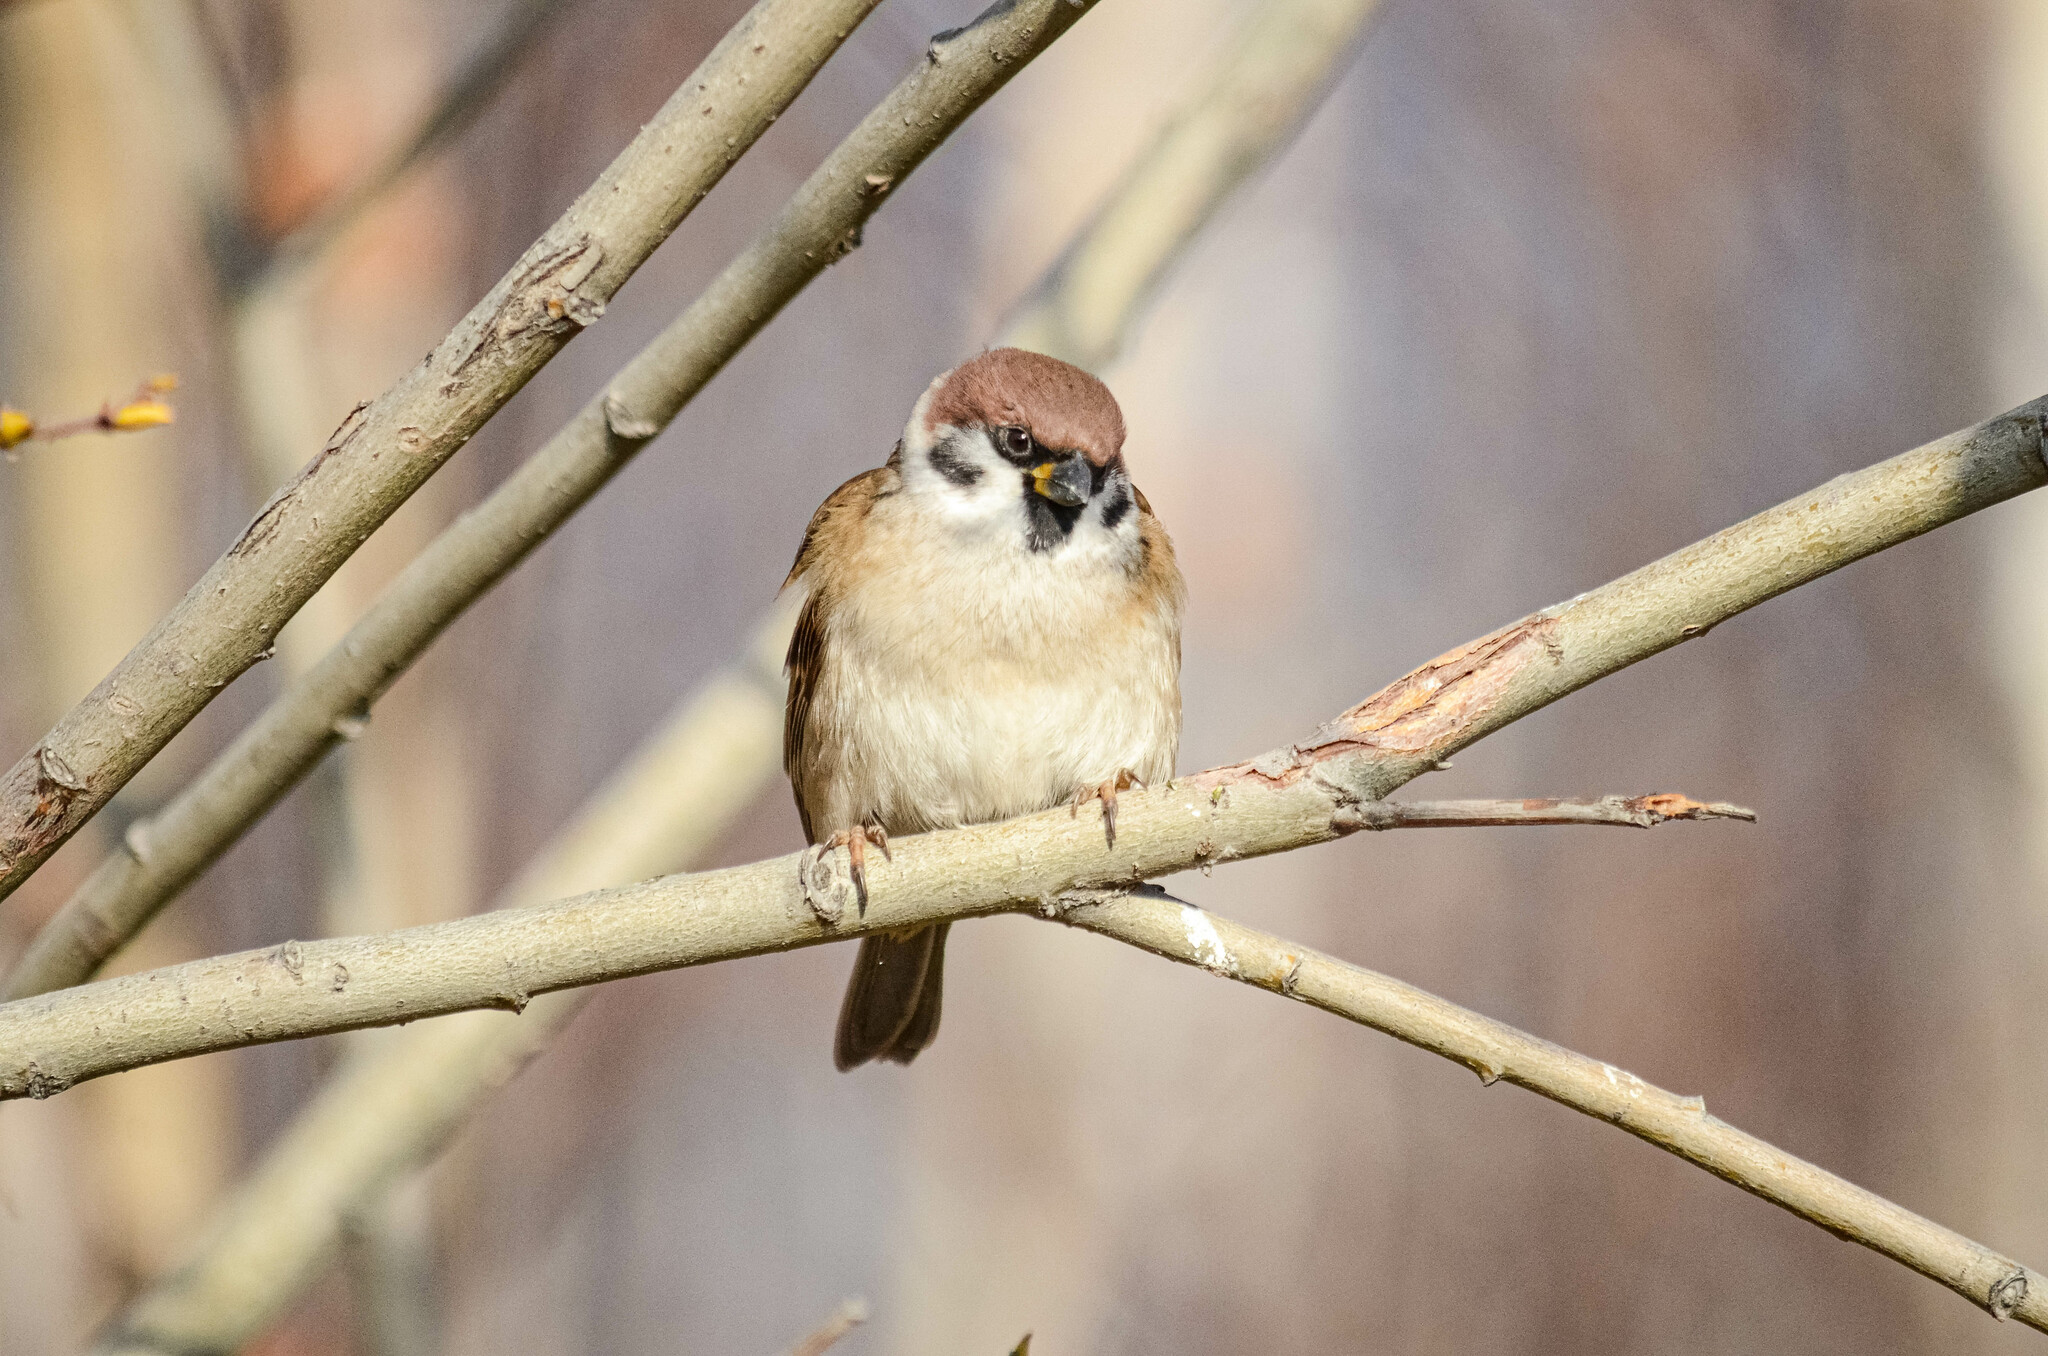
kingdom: Animalia
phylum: Chordata
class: Aves
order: Passeriformes
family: Passeridae
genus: Passer
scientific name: Passer montanus
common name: Eurasian tree sparrow
